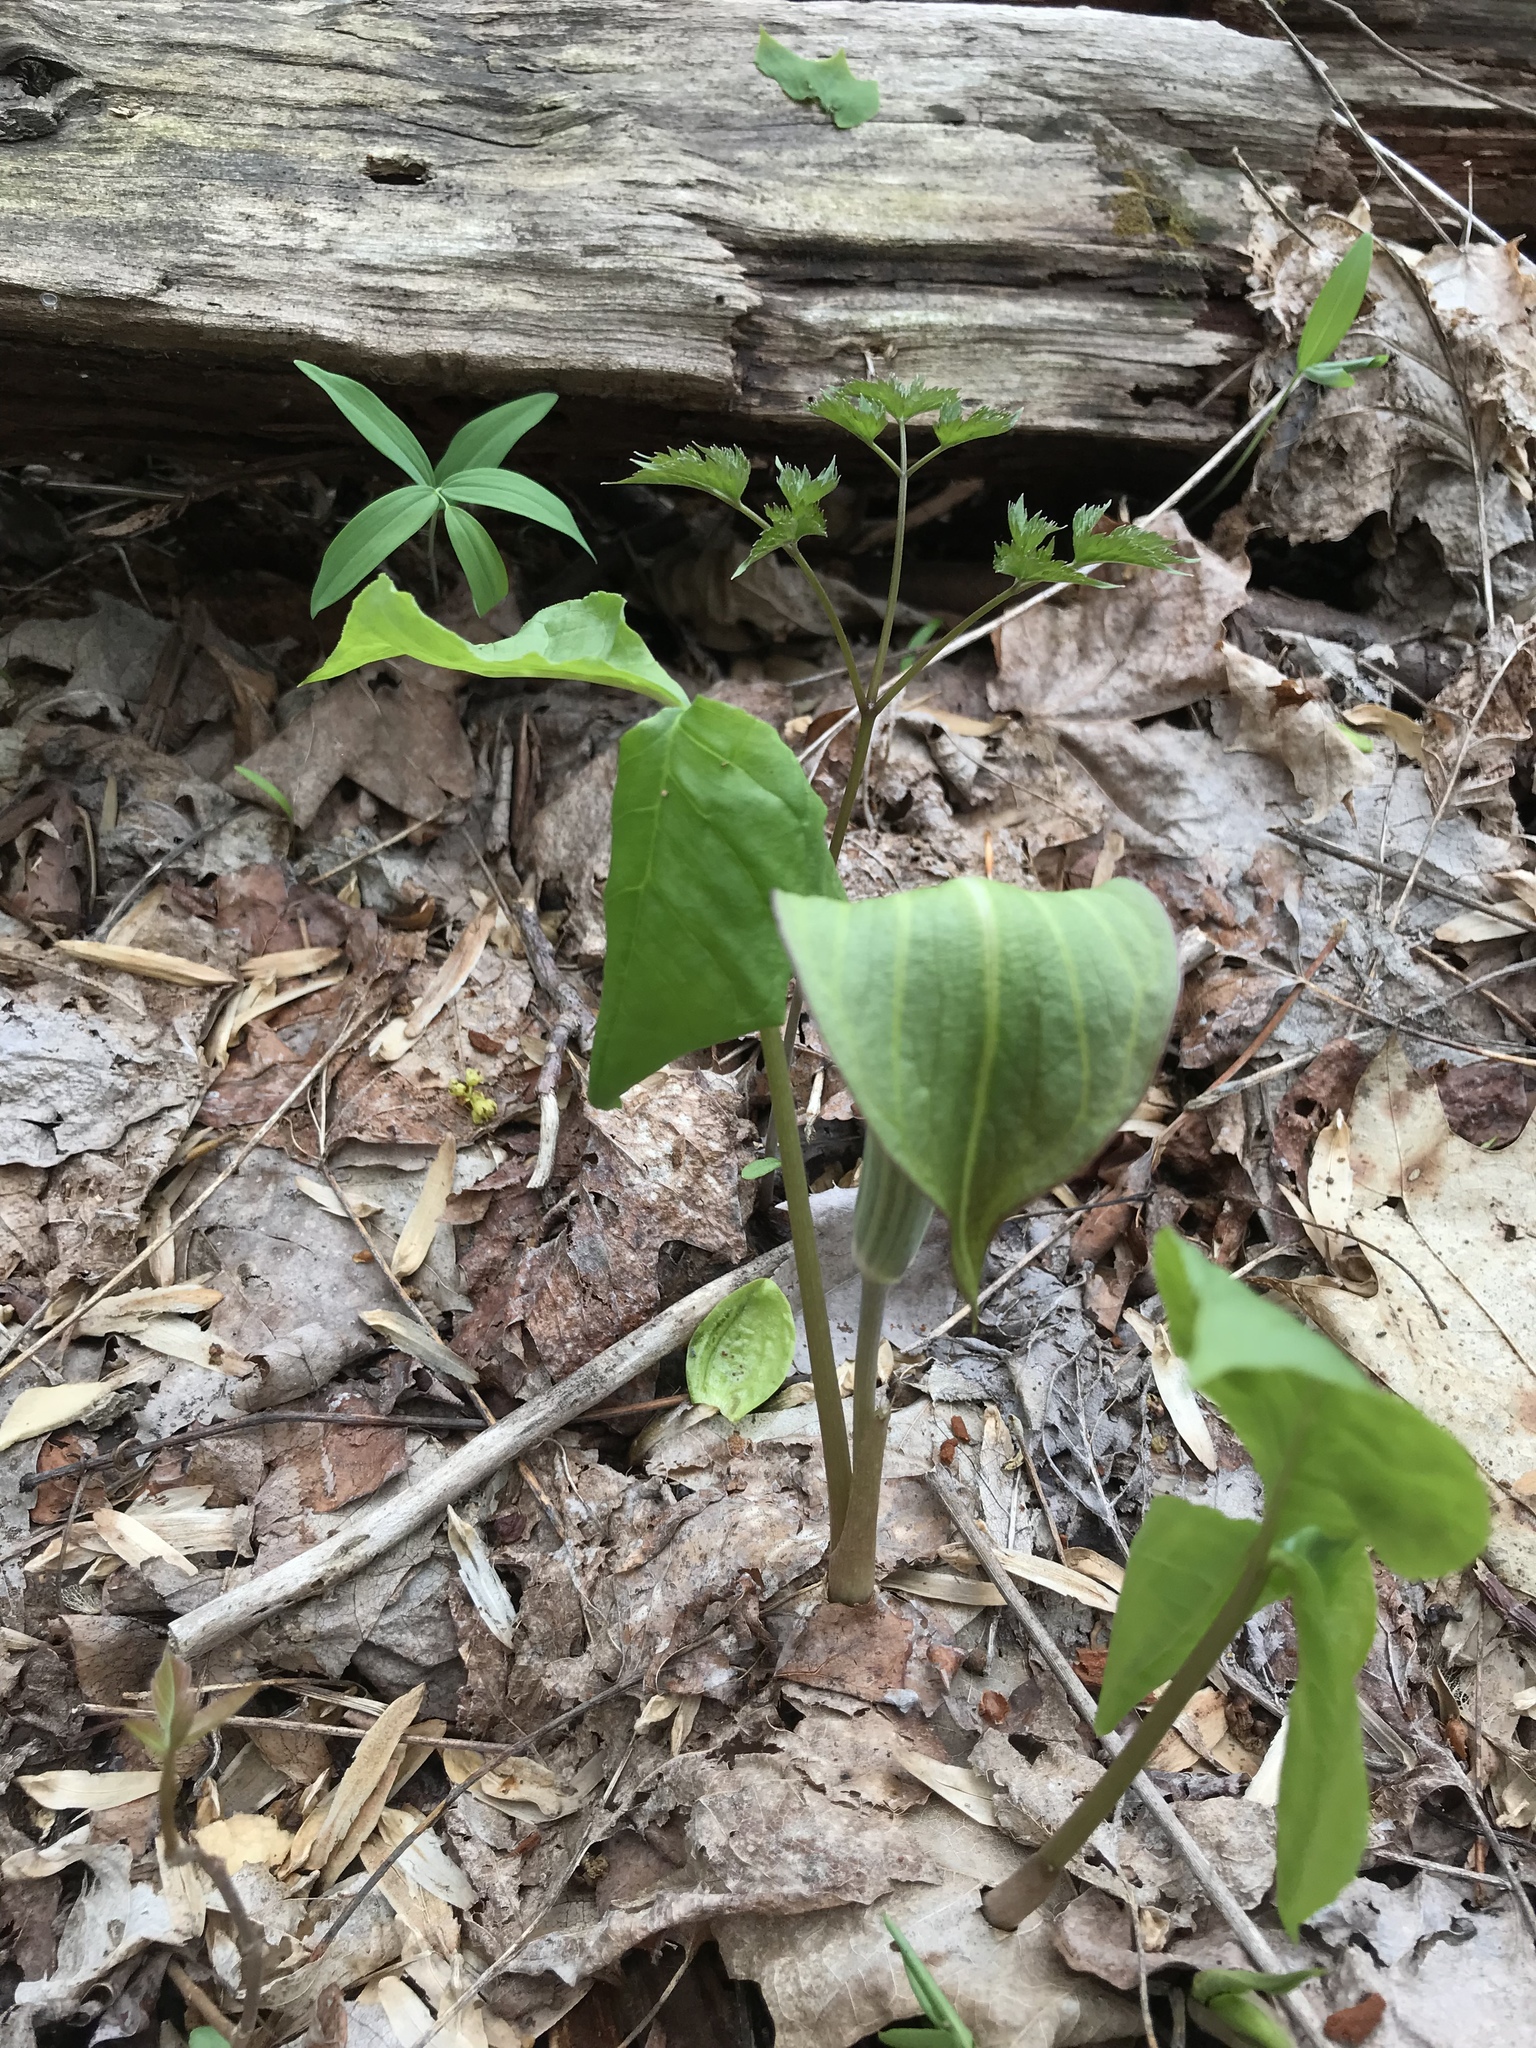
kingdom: Plantae
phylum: Tracheophyta
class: Liliopsida
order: Alismatales
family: Araceae
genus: Arisaema
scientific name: Arisaema triphyllum
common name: Jack-in-the-pulpit
